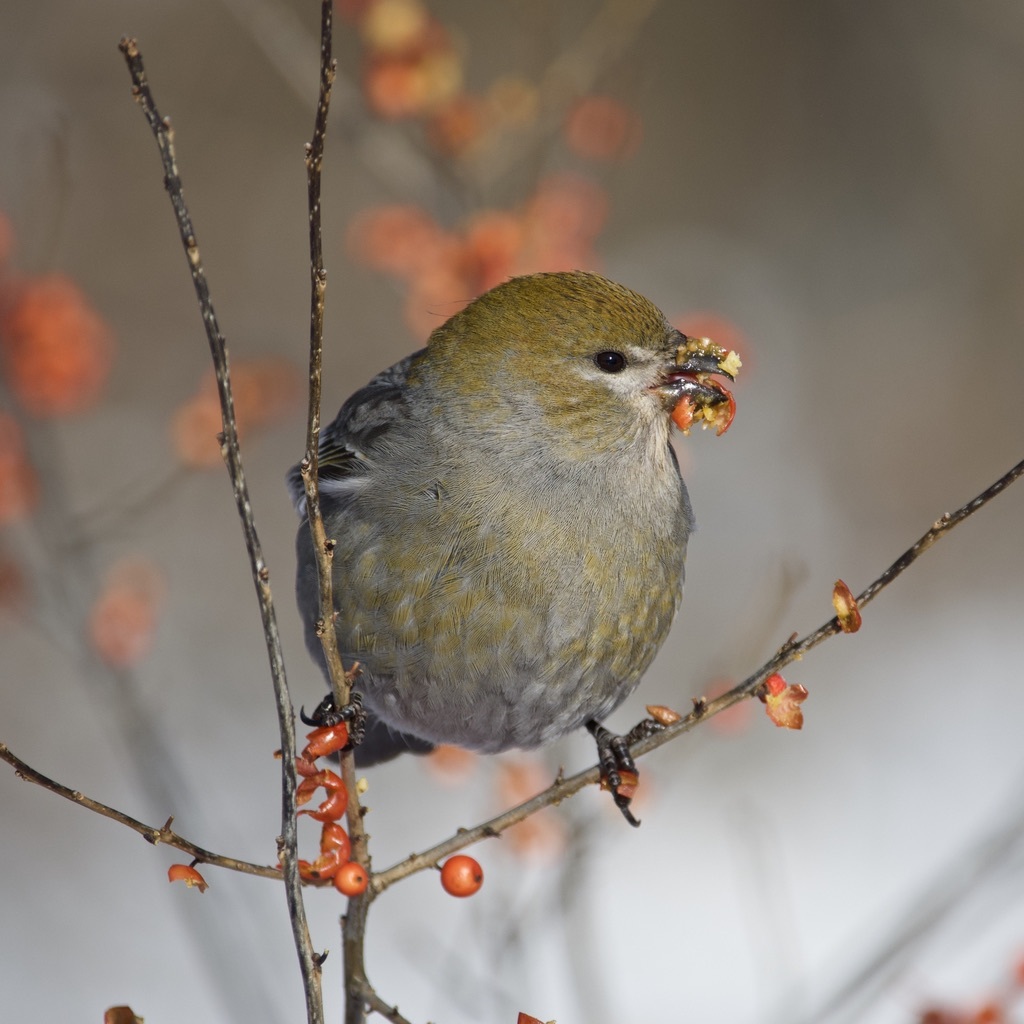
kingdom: Animalia
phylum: Chordata
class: Aves
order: Passeriformes
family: Fringillidae
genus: Pinicola
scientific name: Pinicola enucleator
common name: Pine grosbeak
